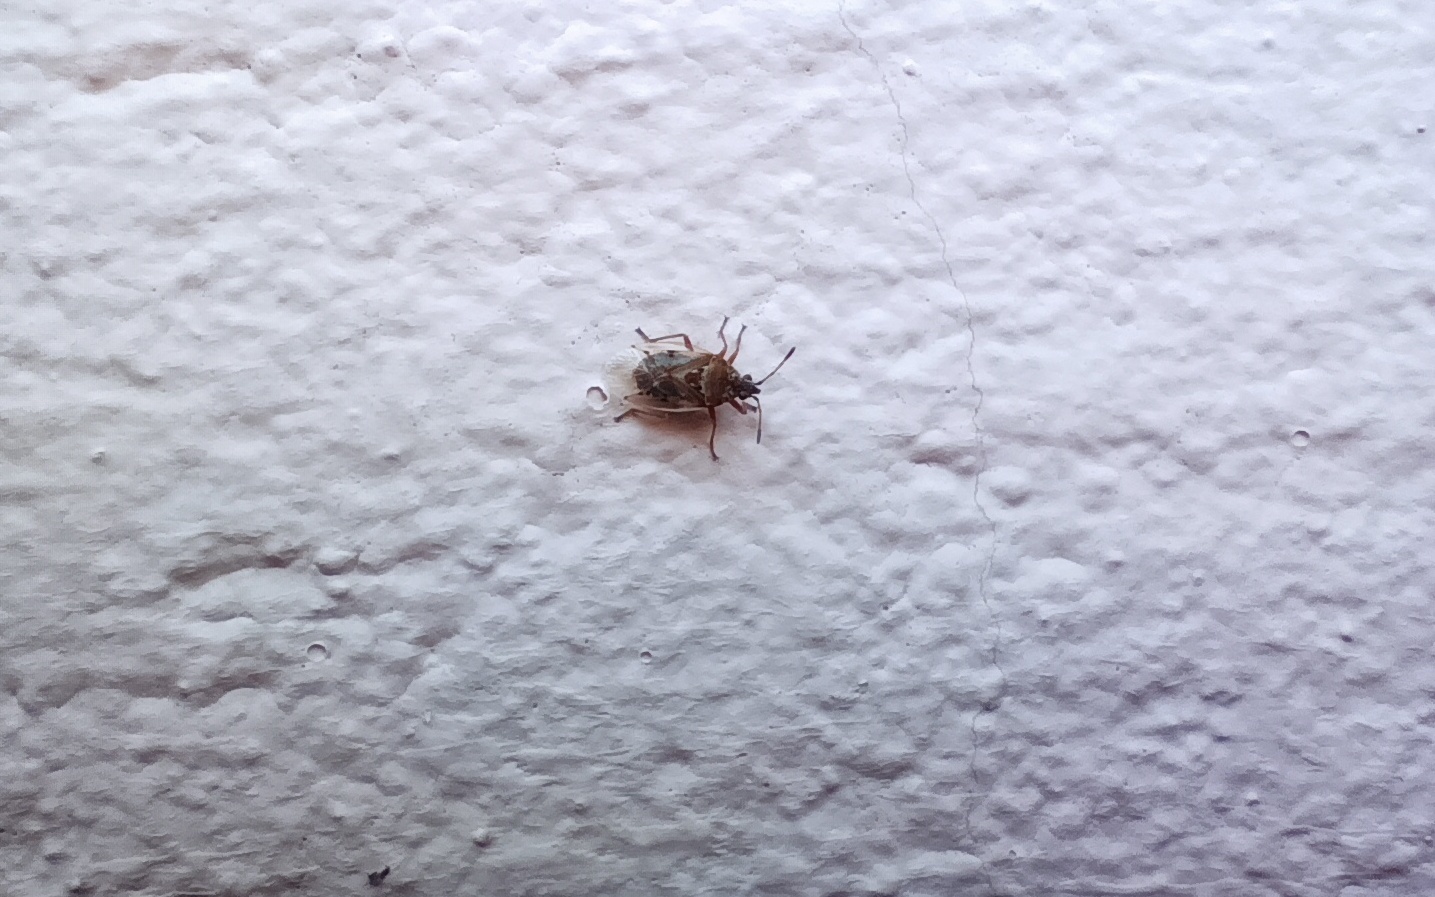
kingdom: Animalia
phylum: Arthropoda
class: Insecta
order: Hemiptera
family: Lygaeidae
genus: Kleidocerys
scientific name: Kleidocerys resedae
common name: Birch catkin bug
